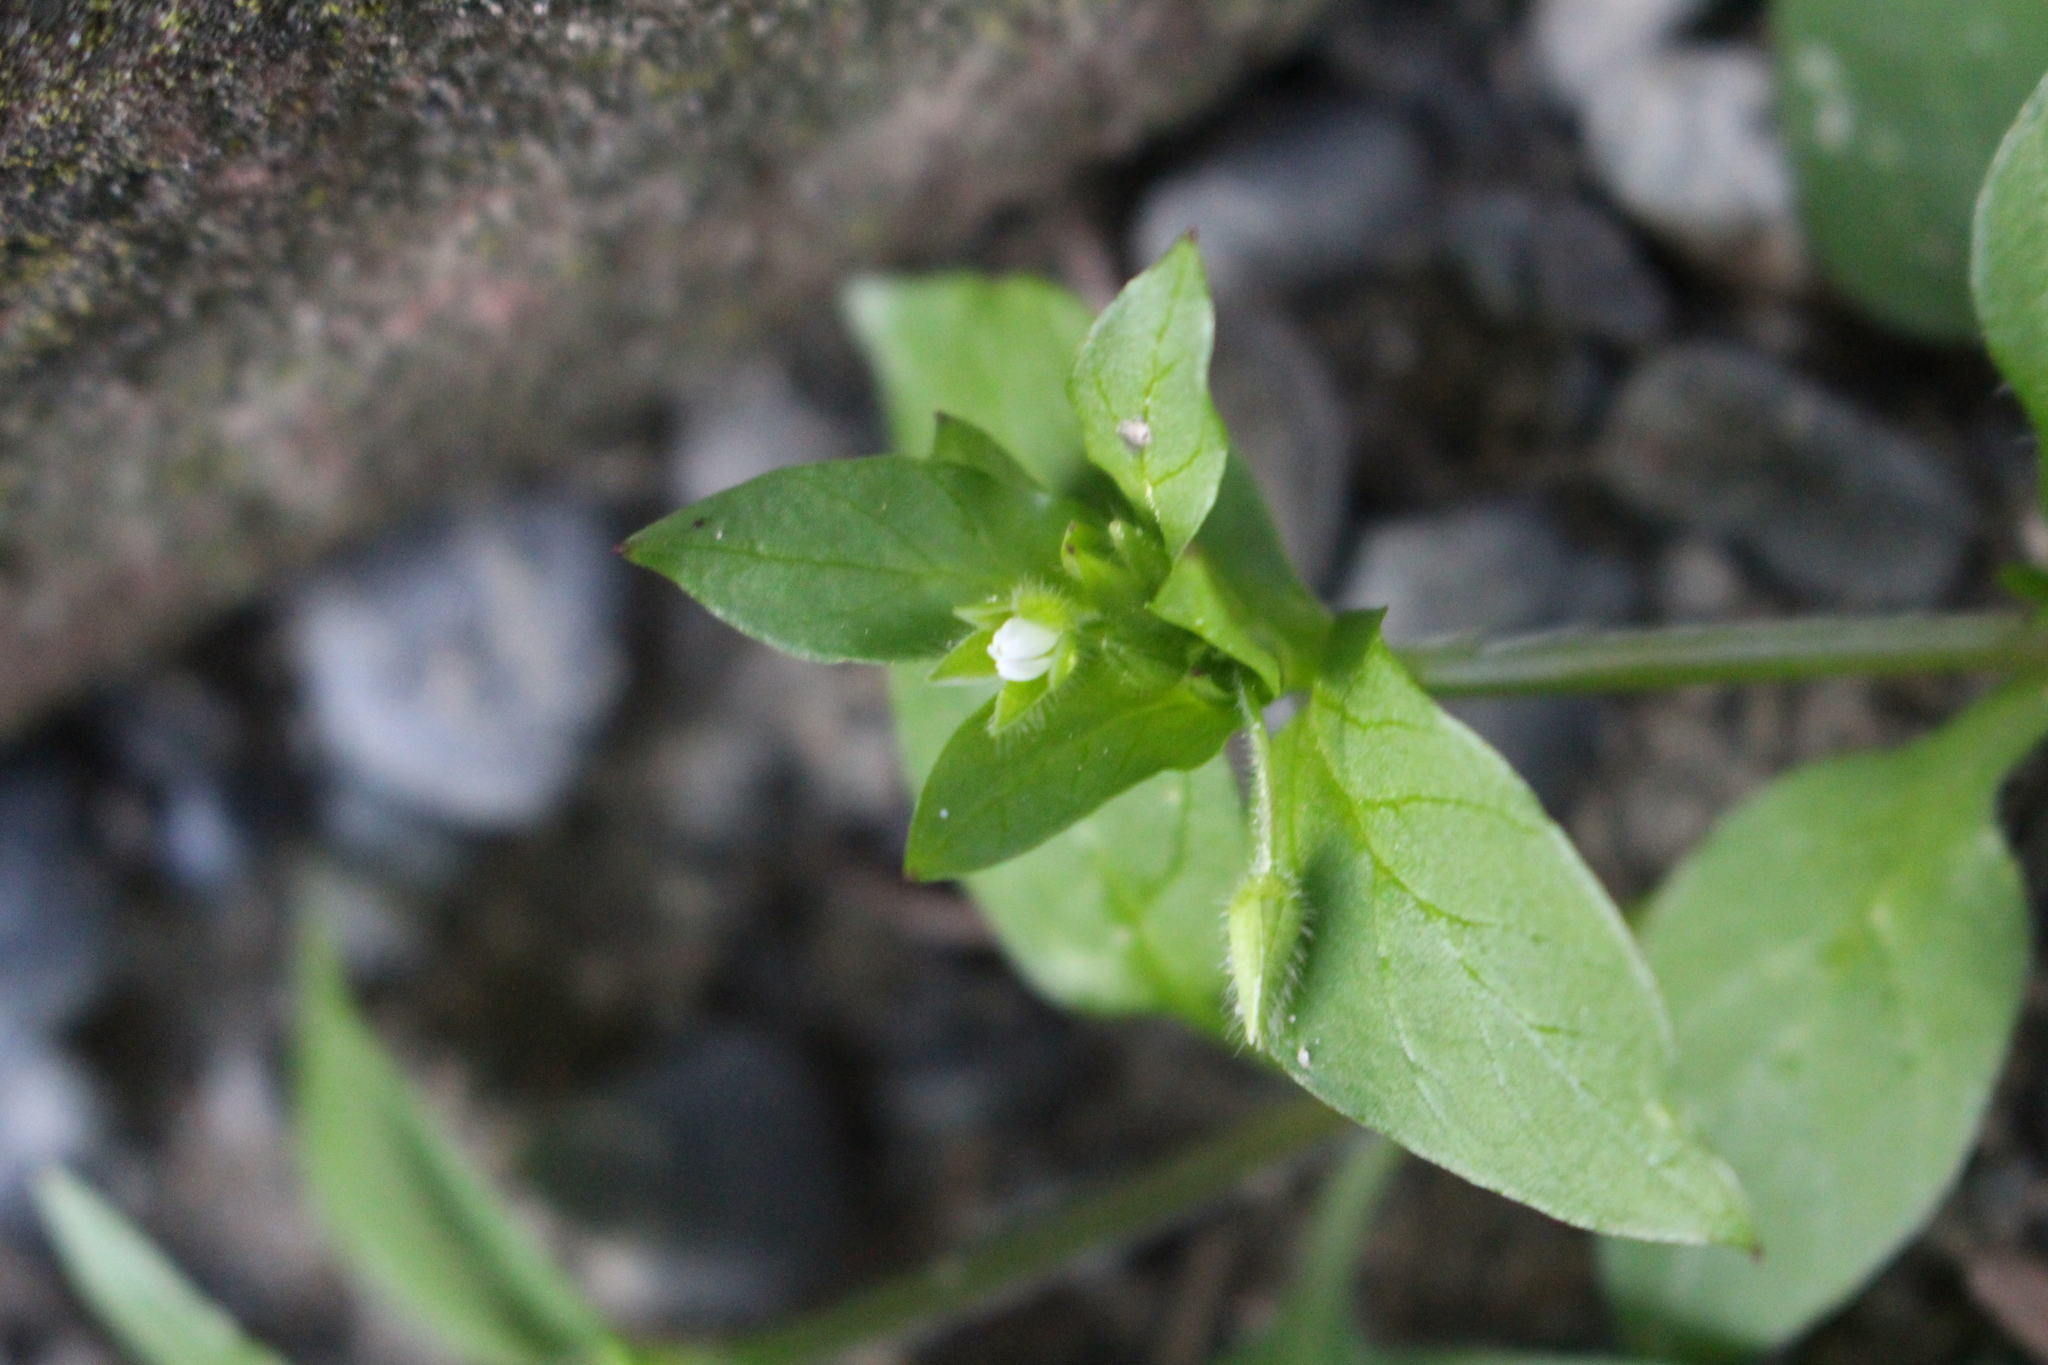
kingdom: Plantae
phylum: Tracheophyta
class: Magnoliopsida
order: Caryophyllales
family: Caryophyllaceae
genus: Stellaria
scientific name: Stellaria media
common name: Common chickweed
